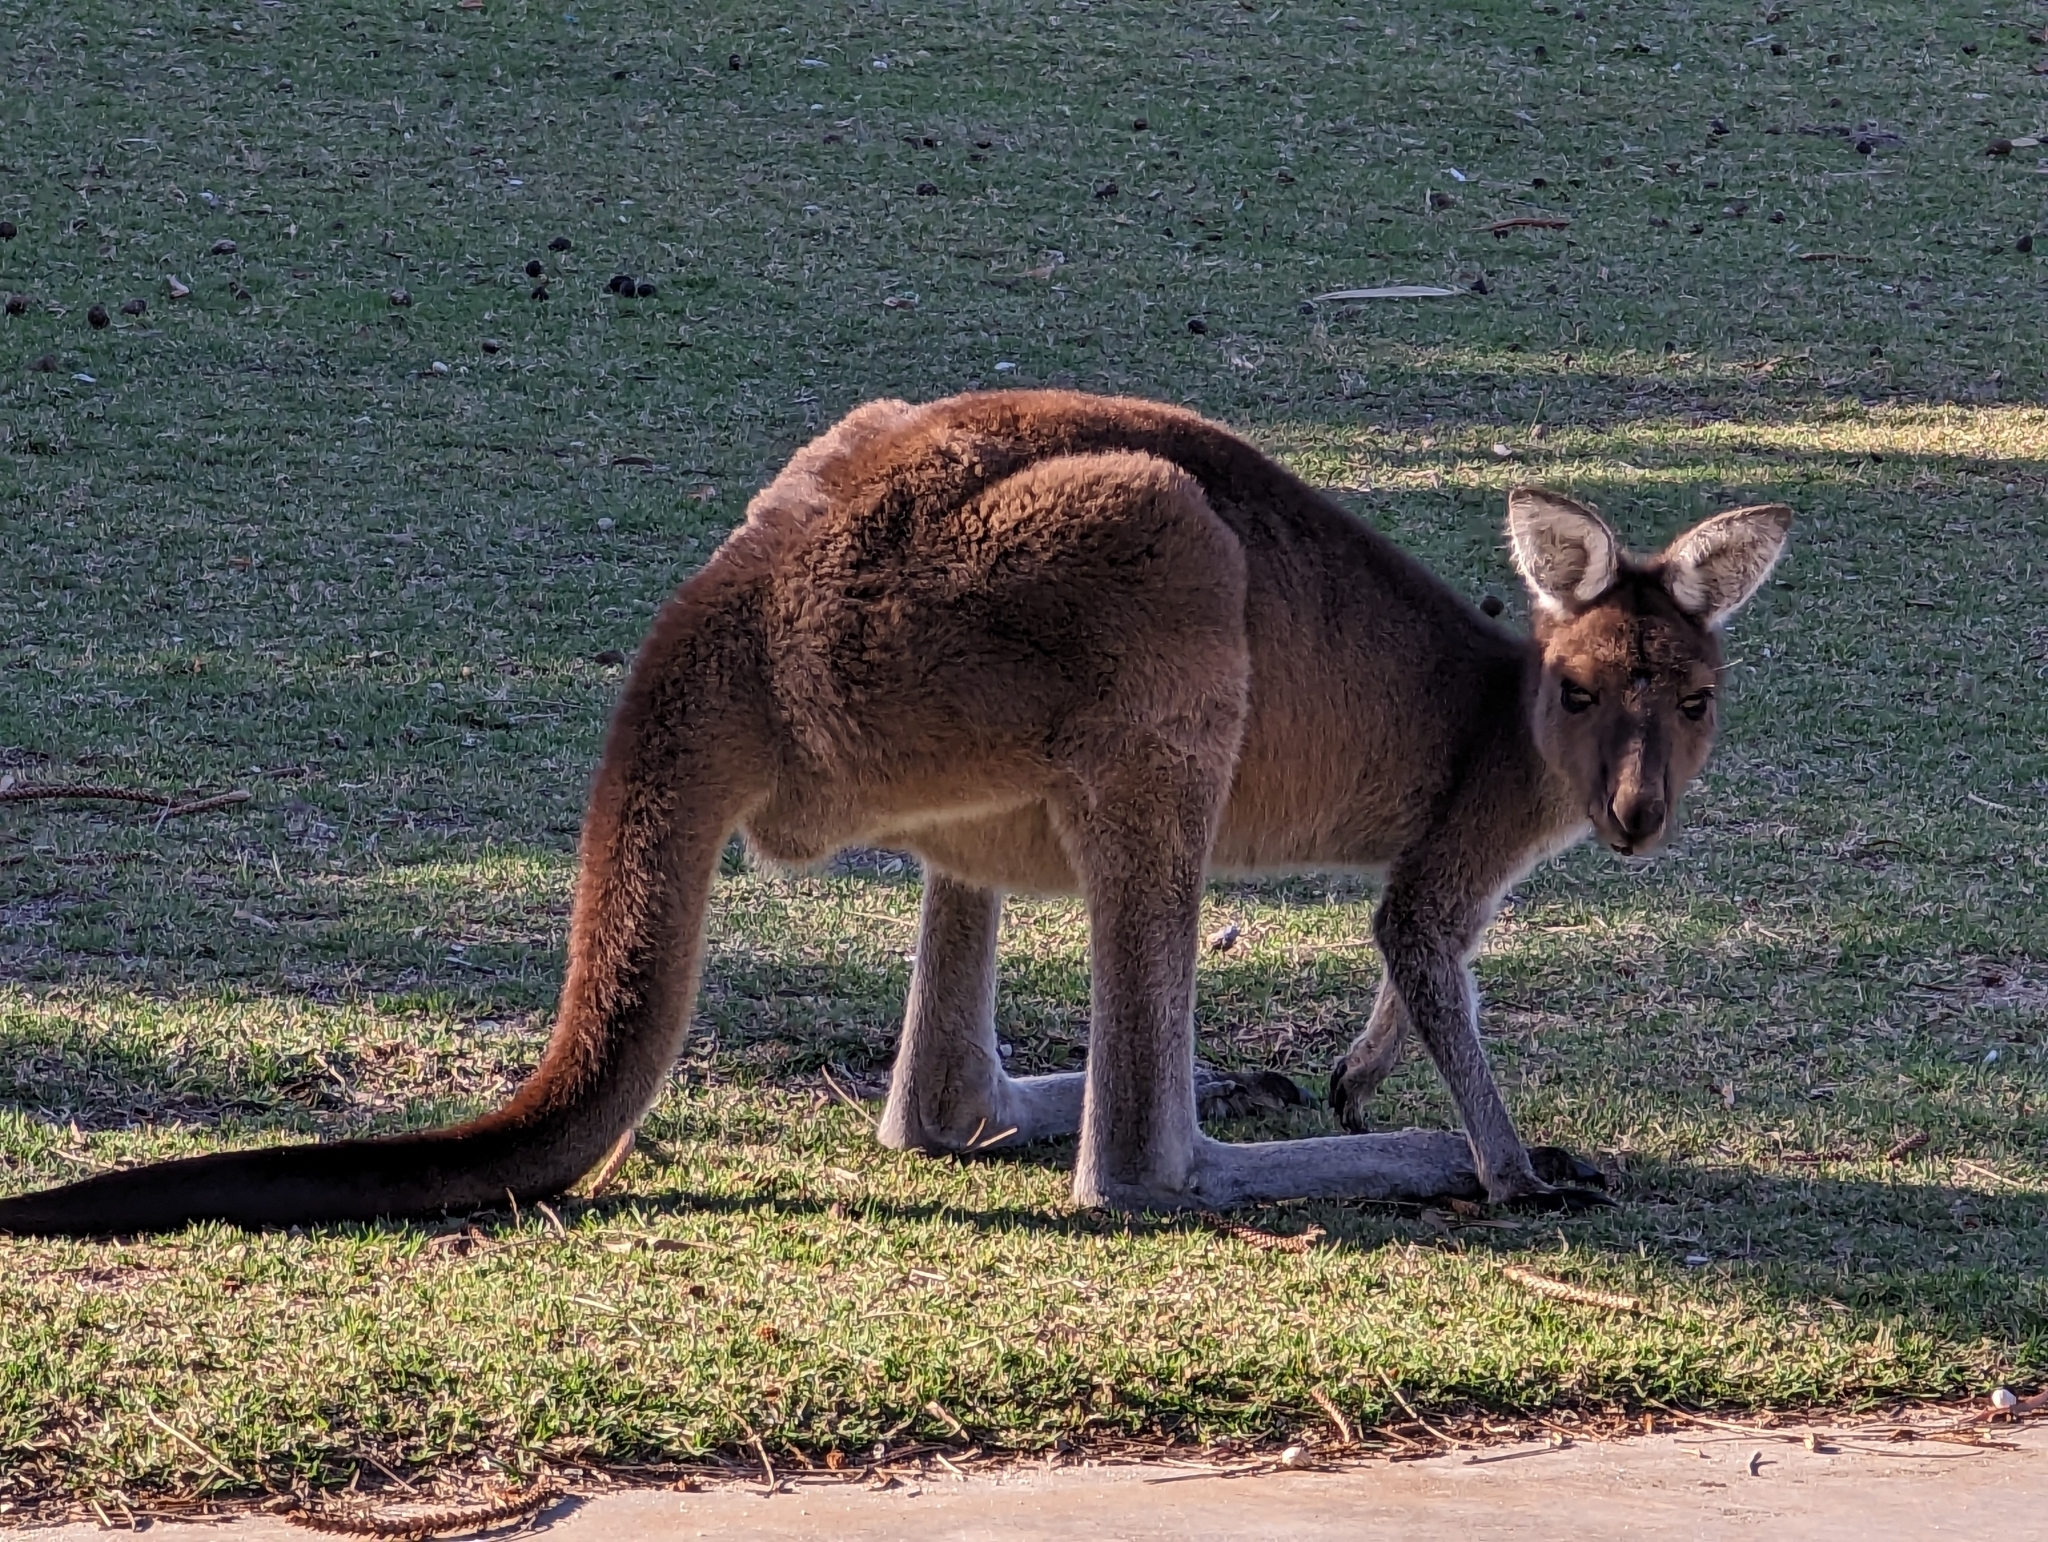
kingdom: Animalia
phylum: Chordata
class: Mammalia
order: Diprotodontia
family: Macropodidae
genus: Macropus
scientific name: Macropus fuliginosus
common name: Western grey kangaroo
